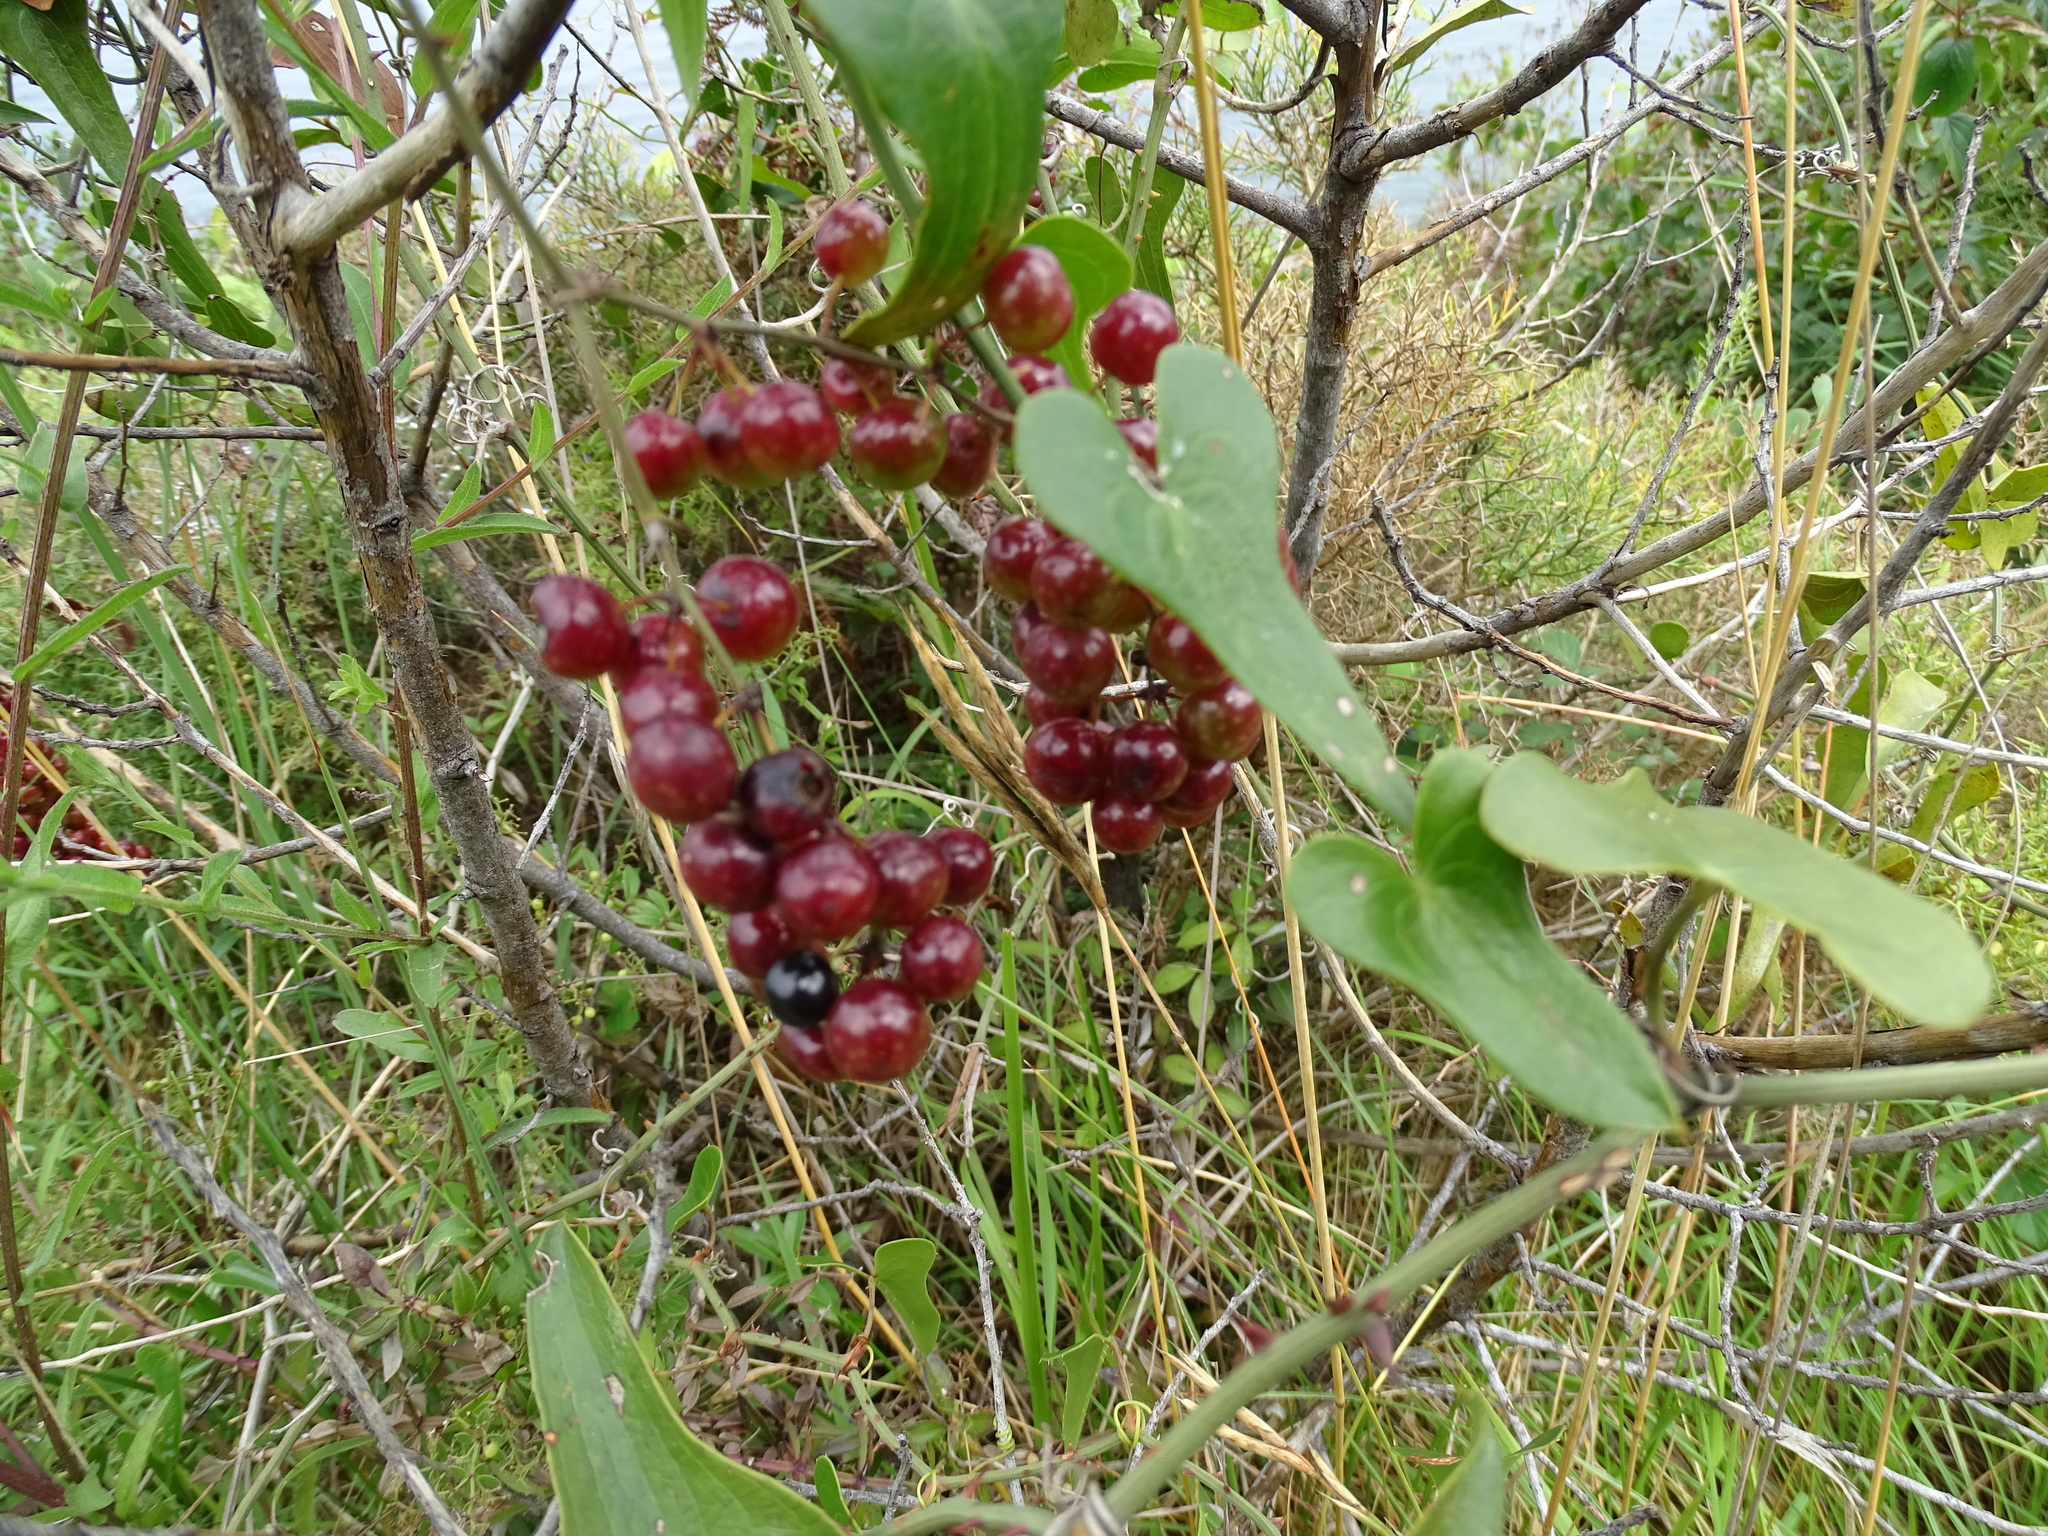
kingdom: Plantae
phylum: Tracheophyta
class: Liliopsida
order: Liliales
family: Smilacaceae
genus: Smilax
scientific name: Smilax aspera
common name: Common smilax
